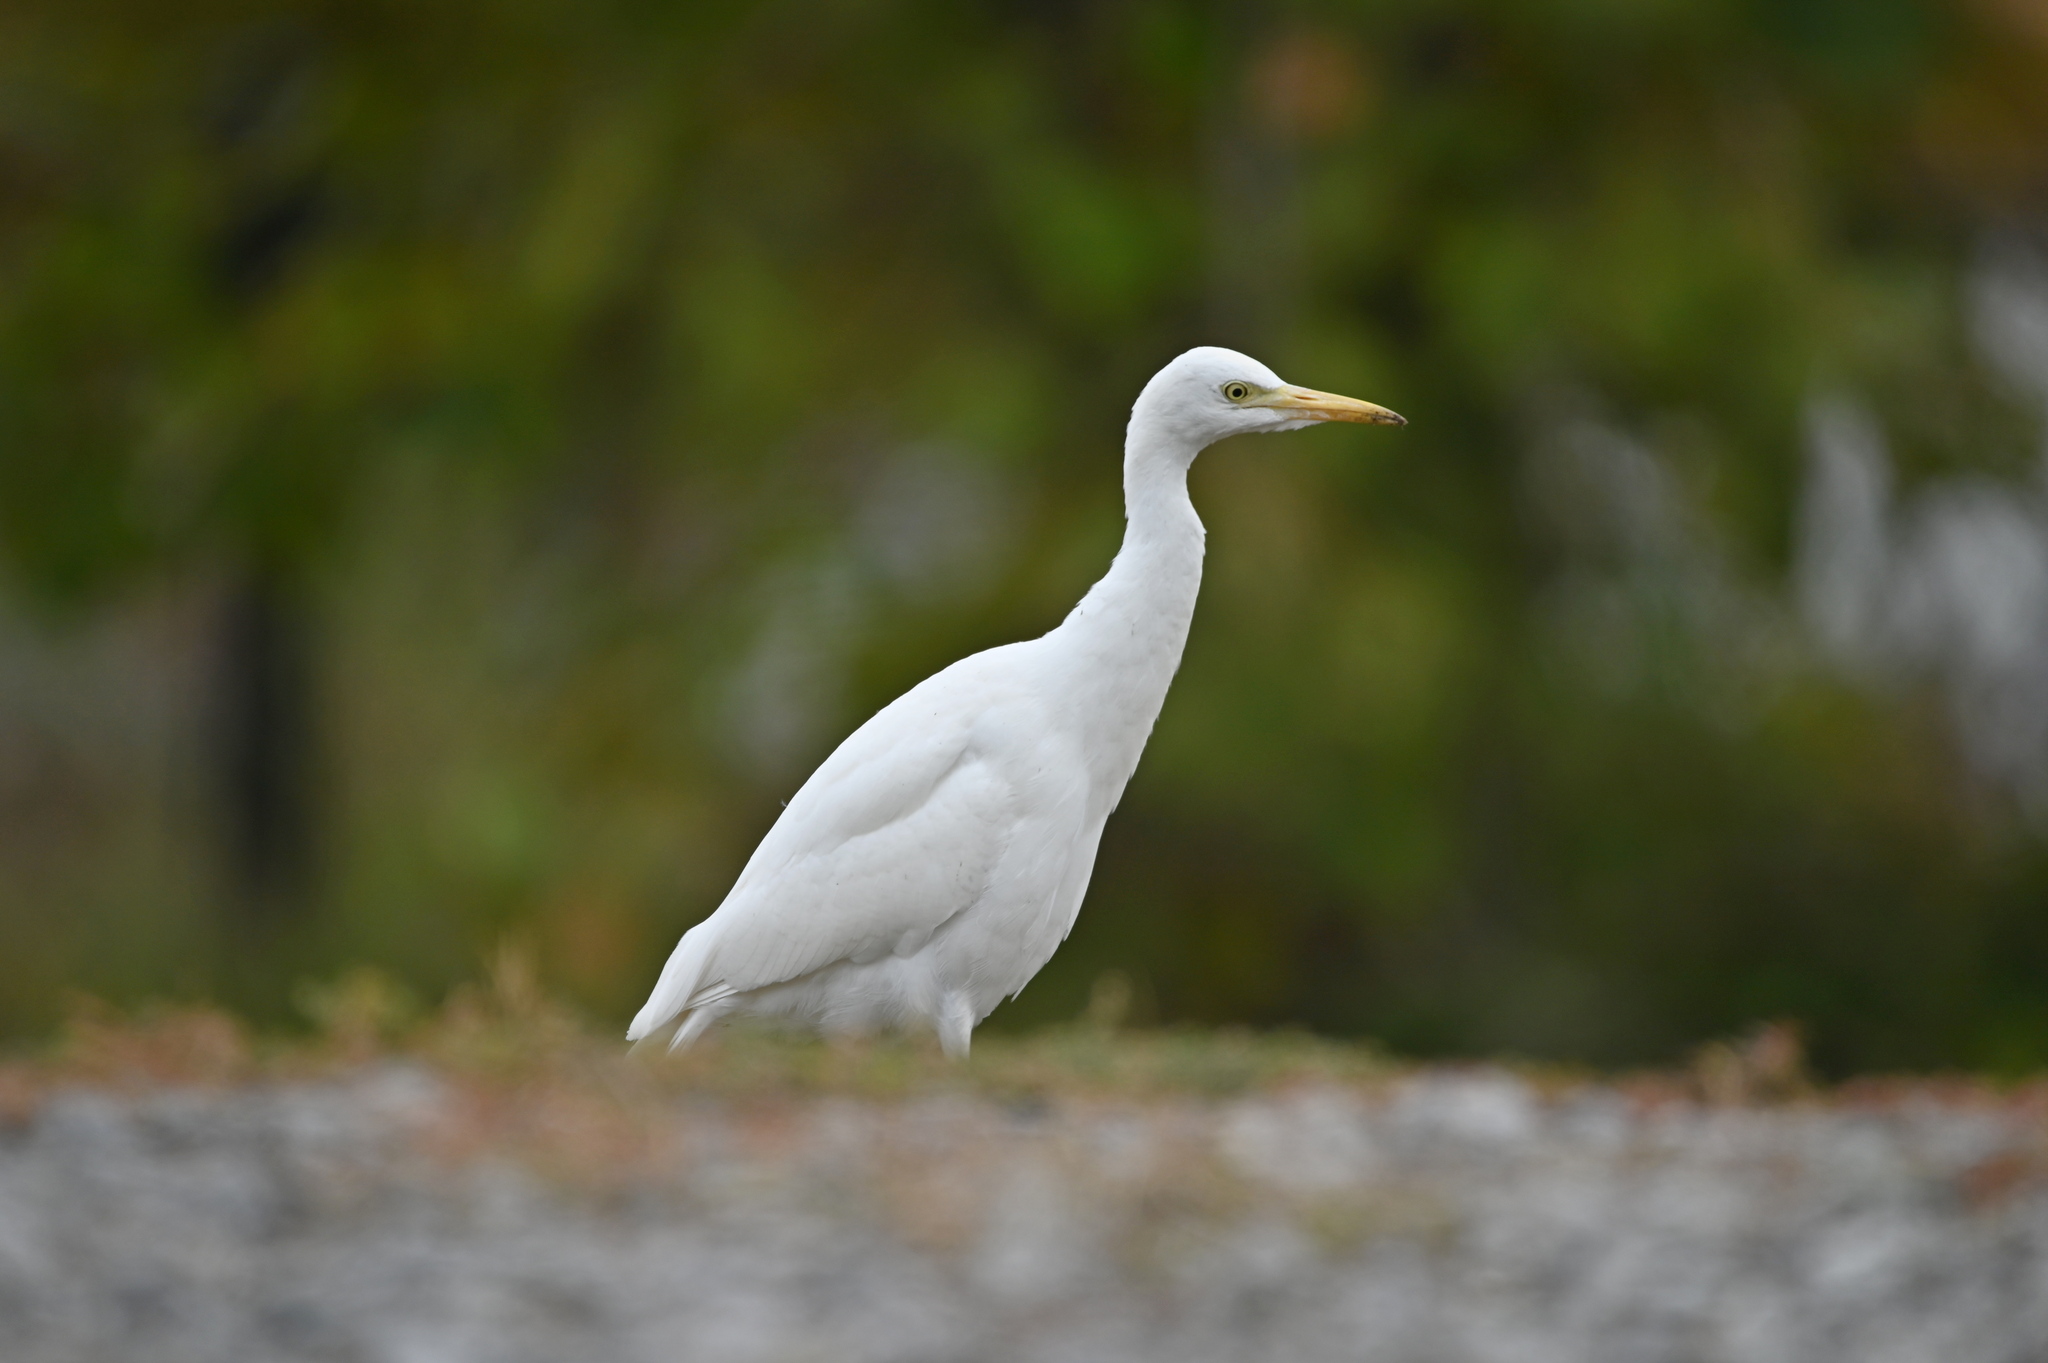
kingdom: Animalia
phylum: Chordata
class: Aves
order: Pelecaniformes
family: Ardeidae
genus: Bubulcus
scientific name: Bubulcus ibis
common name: Cattle egret
